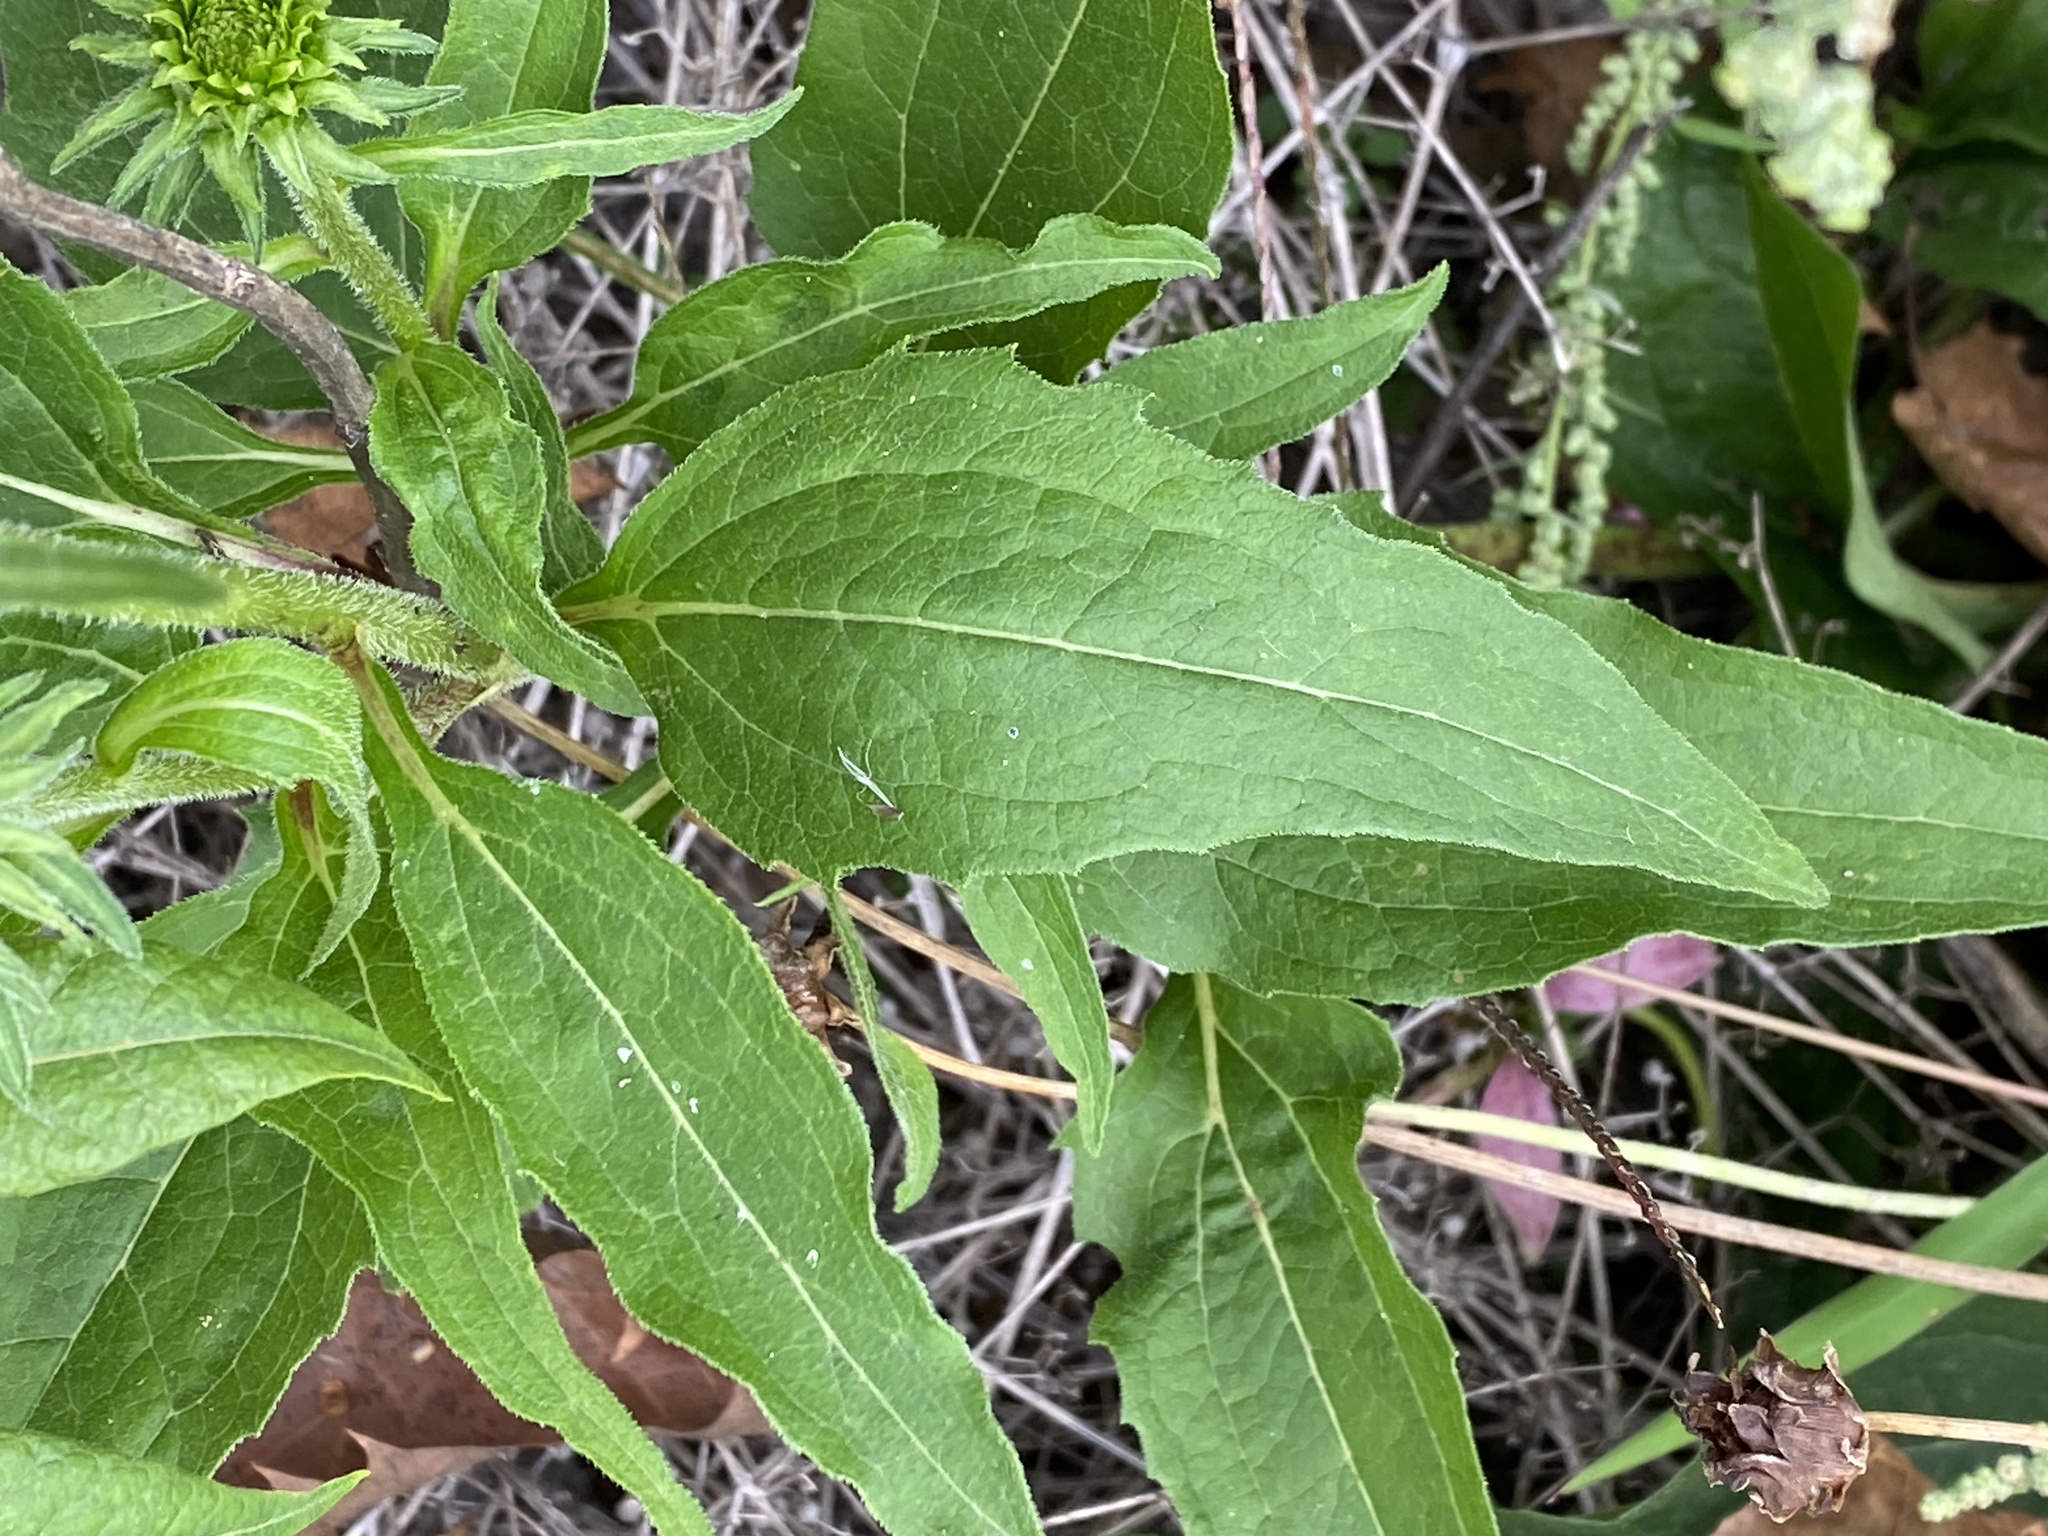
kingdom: Plantae
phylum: Tracheophyta
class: Magnoliopsida
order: Asterales
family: Asteraceae
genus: Echinacea
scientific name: Echinacea purpurea
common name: Broad-leaved purple coneflower
